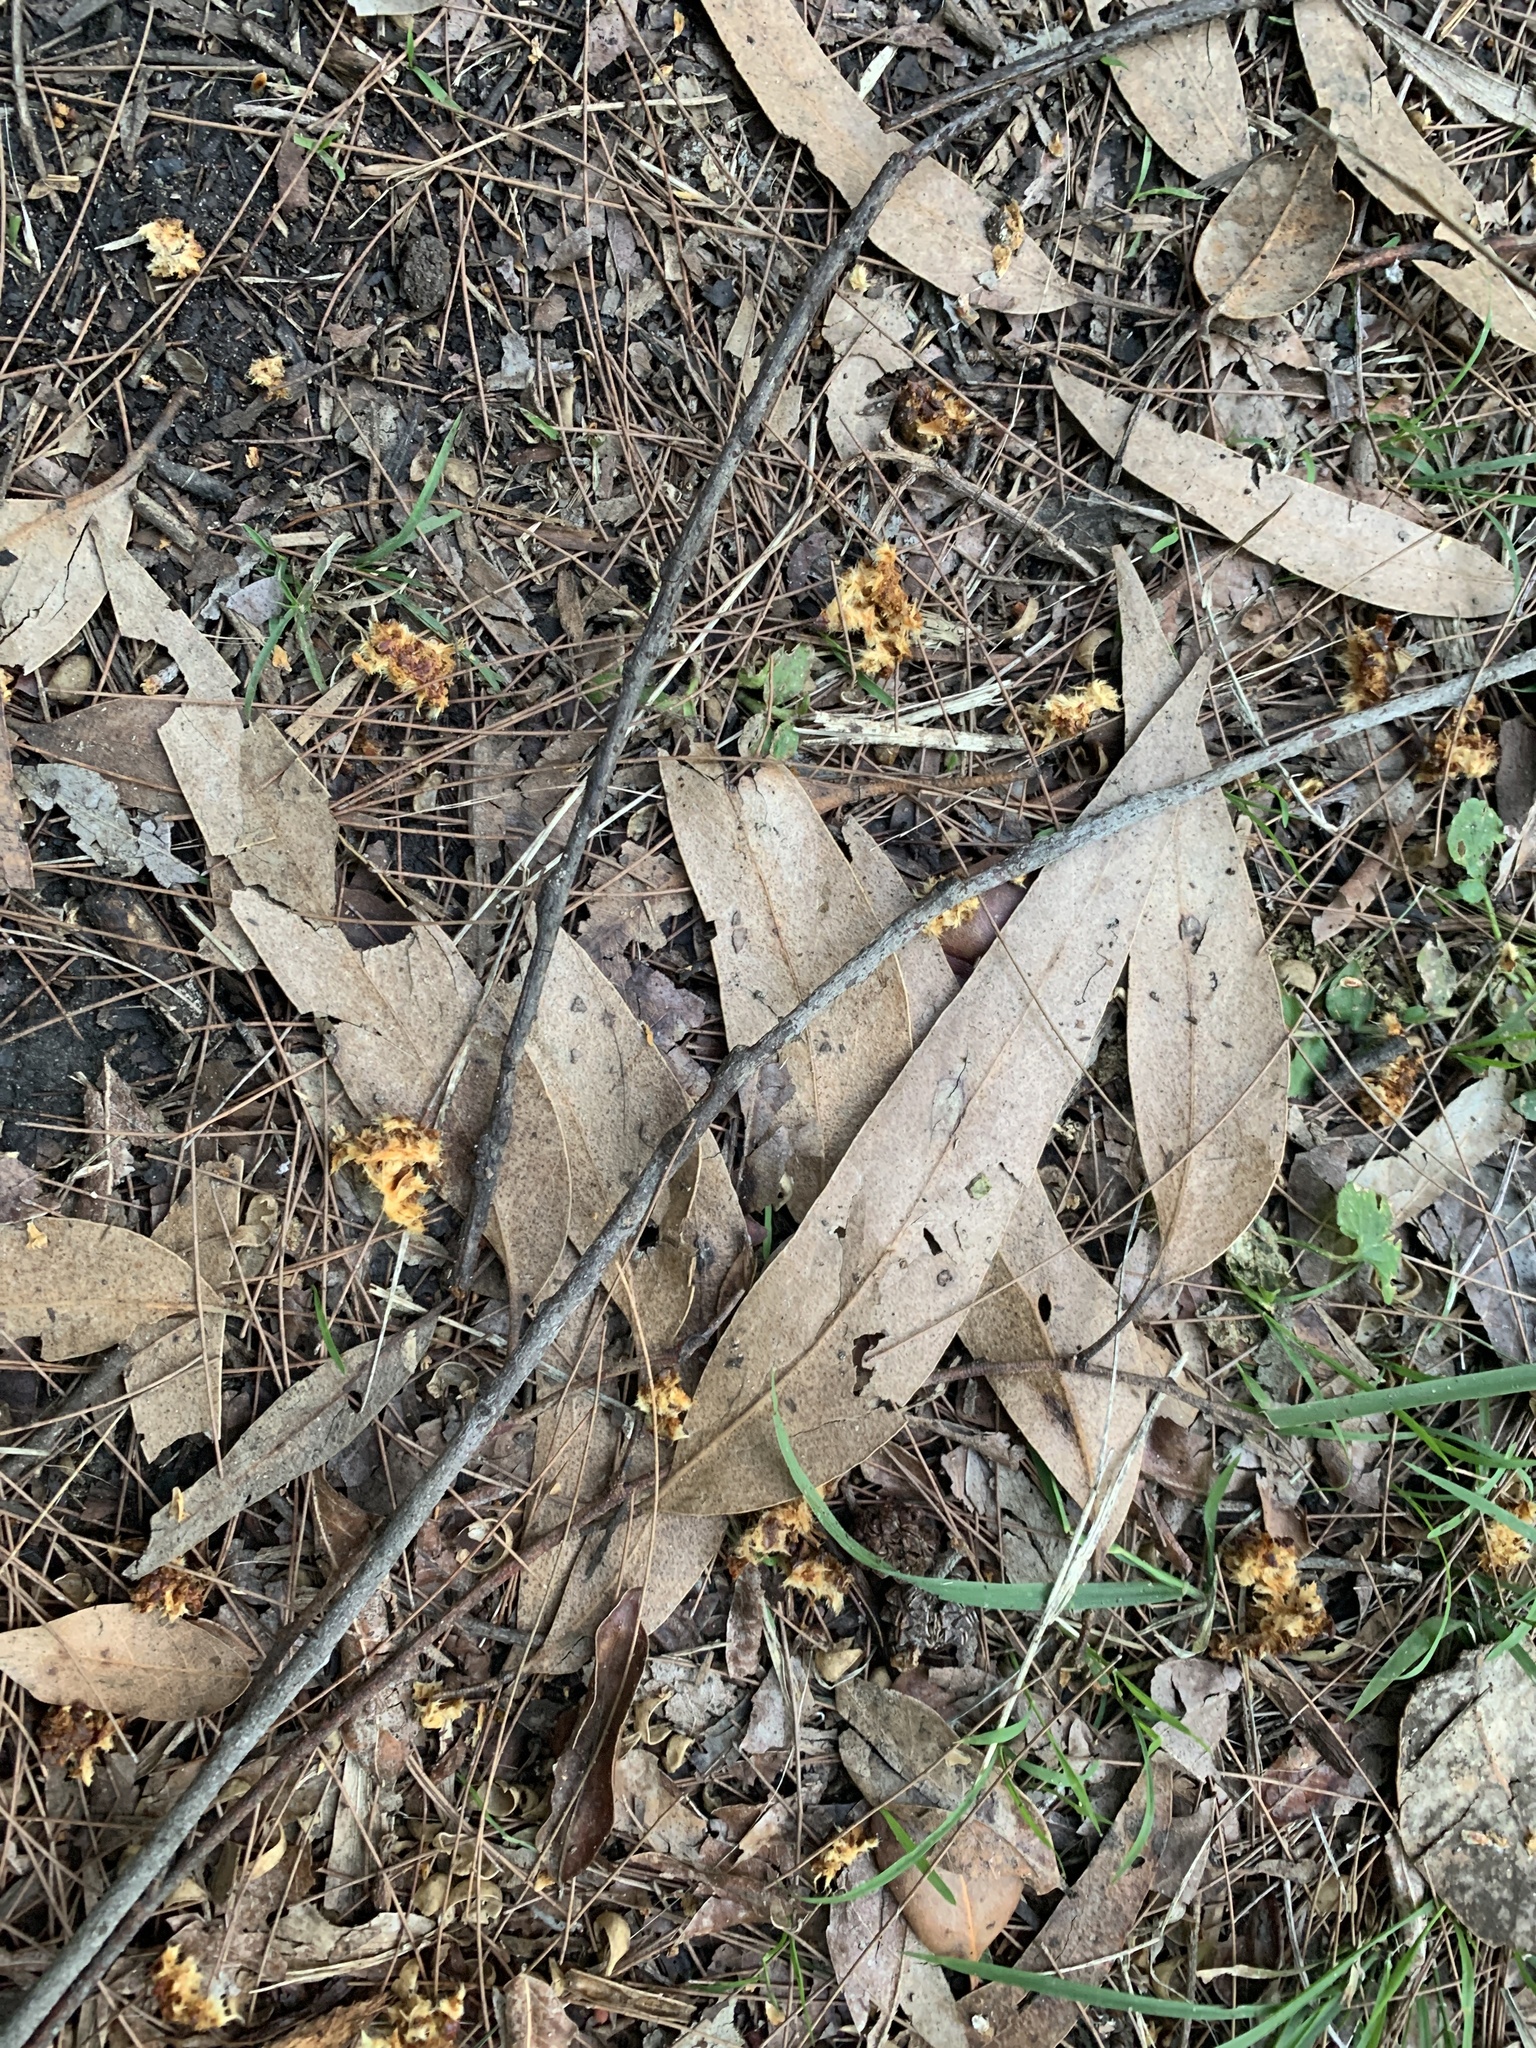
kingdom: Animalia
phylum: Chordata
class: Aves
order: Psittaciformes
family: Psittacidae
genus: Calyptorhynchus
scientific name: Calyptorhynchus lathami
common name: Glossy black cockatoo
